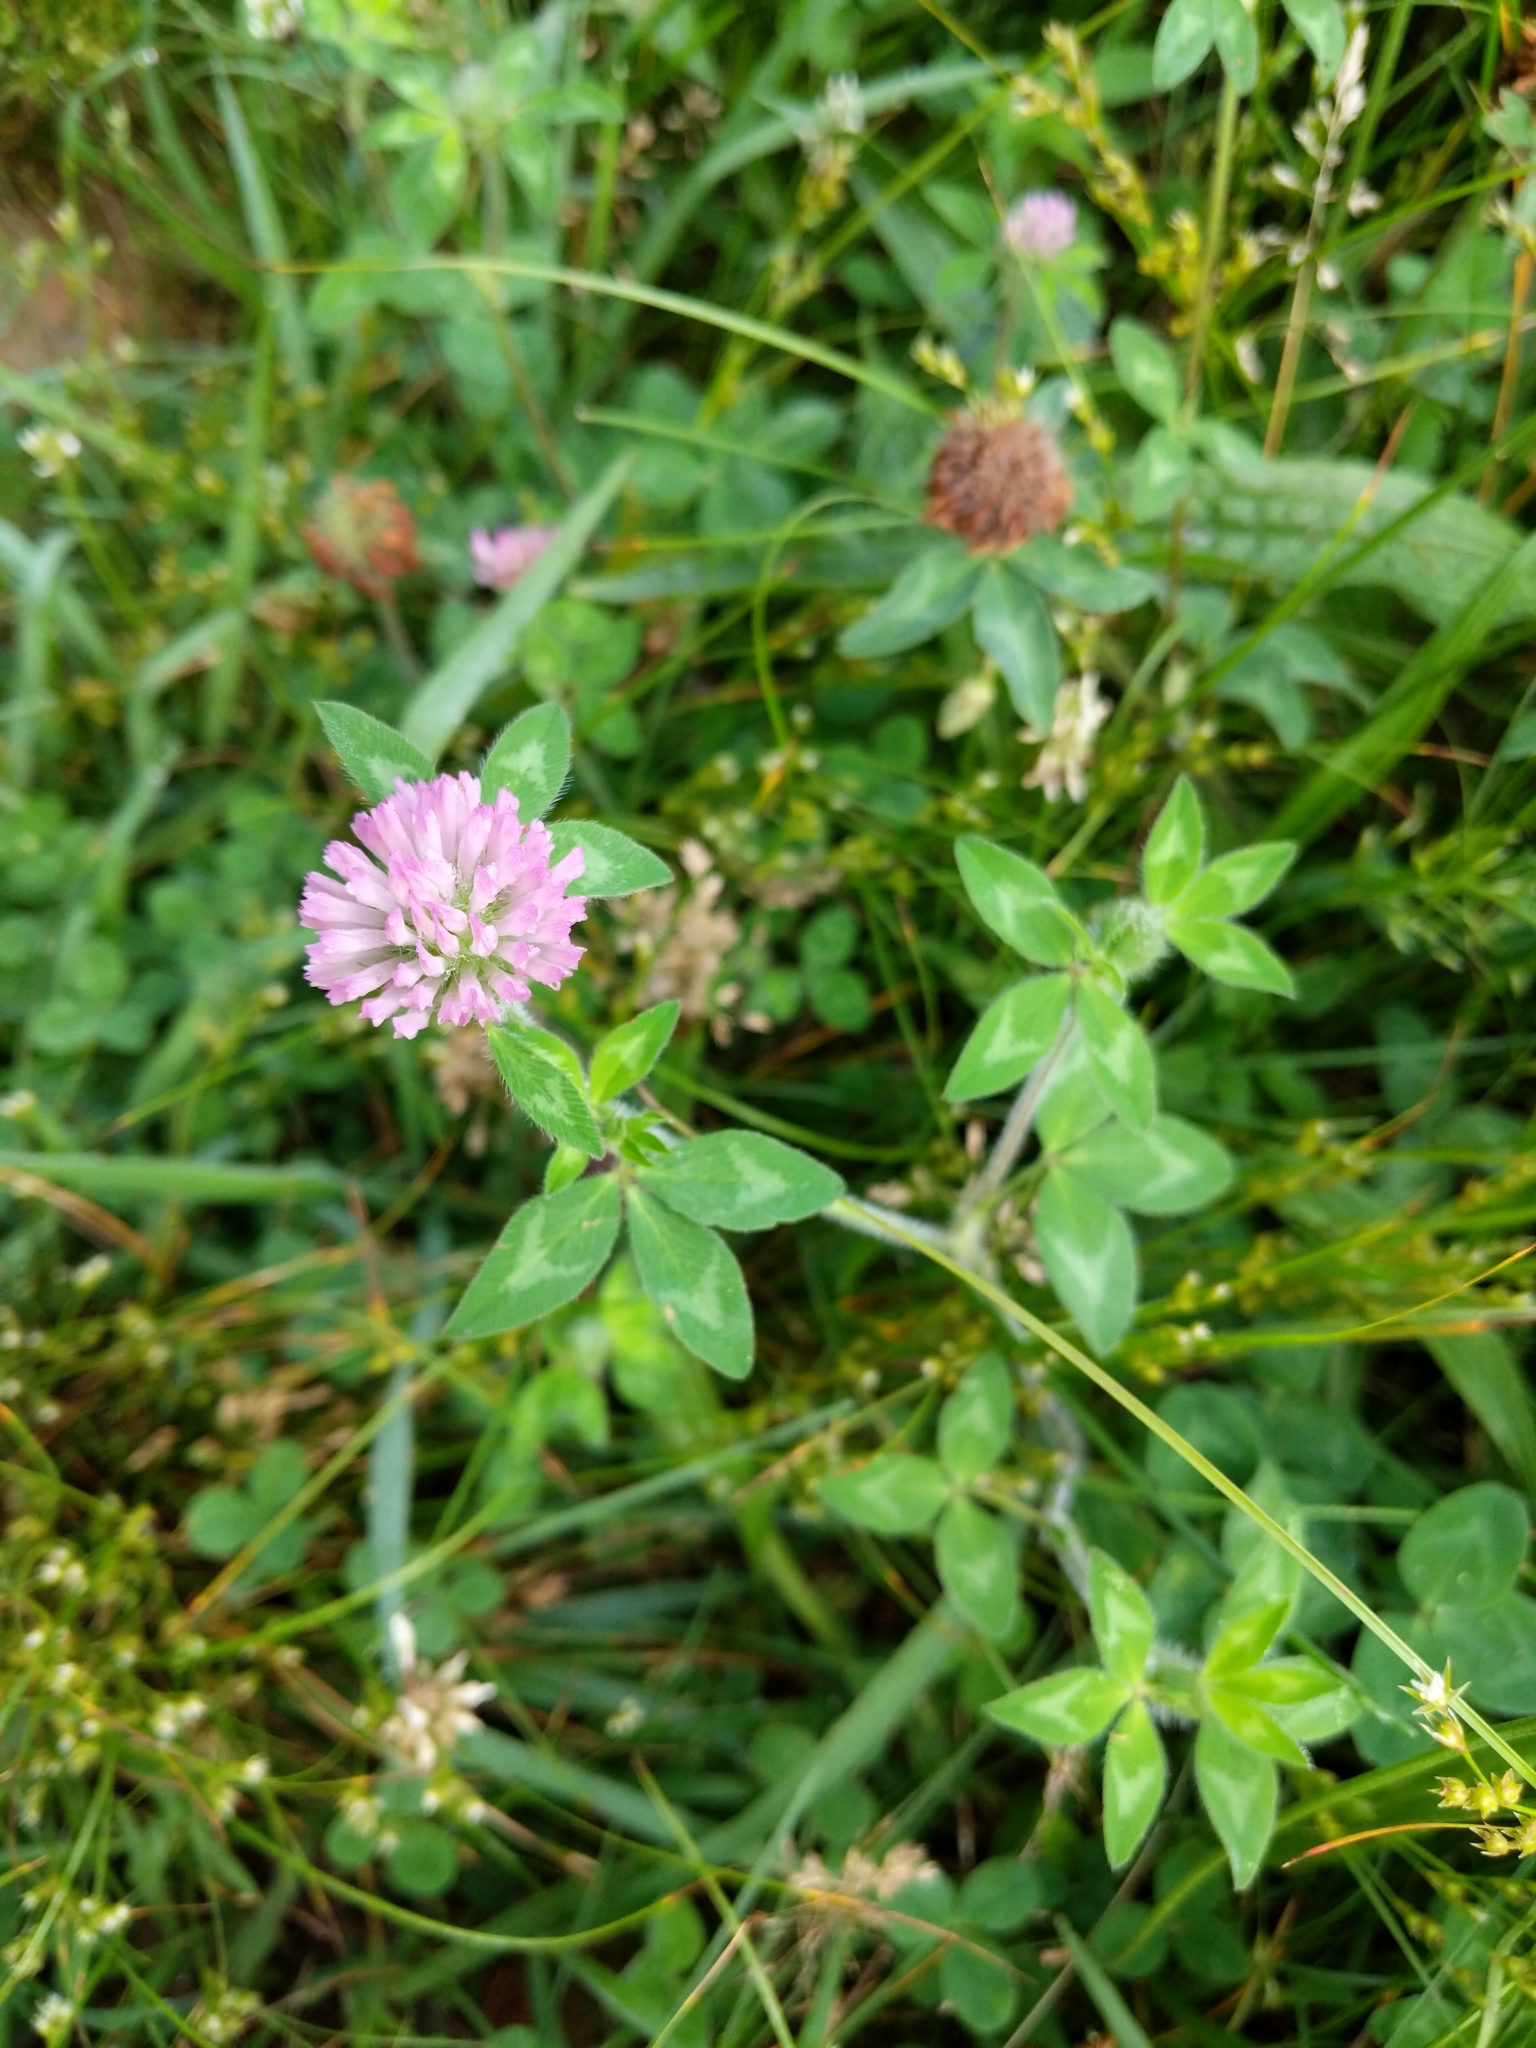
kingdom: Plantae
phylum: Tracheophyta
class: Magnoliopsida
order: Fabales
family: Fabaceae
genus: Trifolium
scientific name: Trifolium pratense
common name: Red clover
